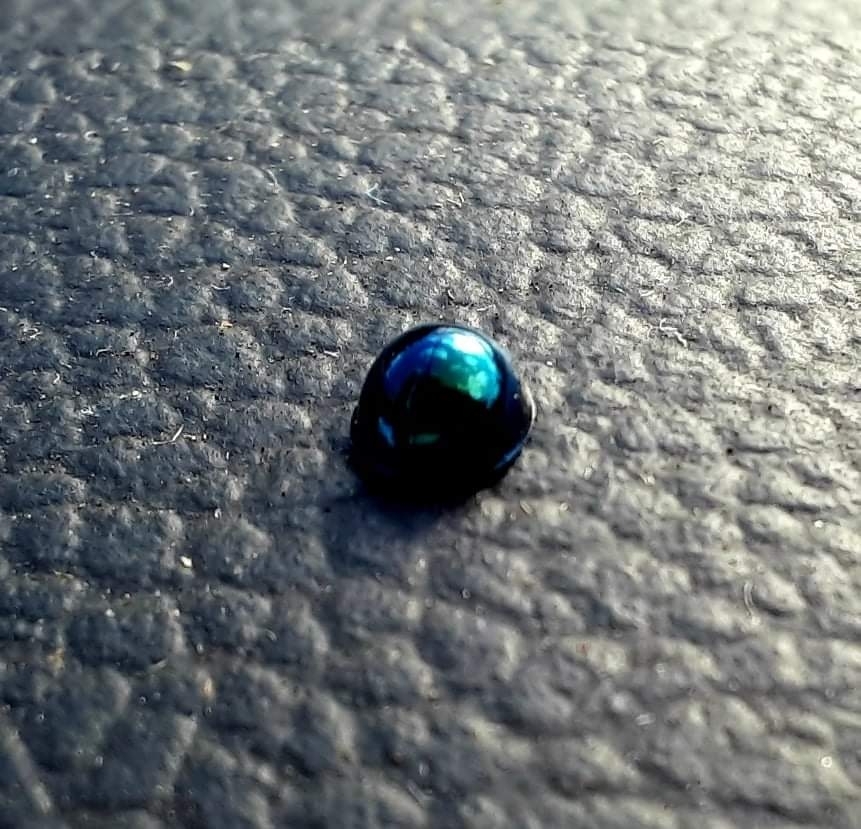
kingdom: Animalia
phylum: Arthropoda
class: Insecta
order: Coleoptera
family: Coccinellidae
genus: Halmus
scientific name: Halmus chalybeus
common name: Steel blue ladybird beetle
